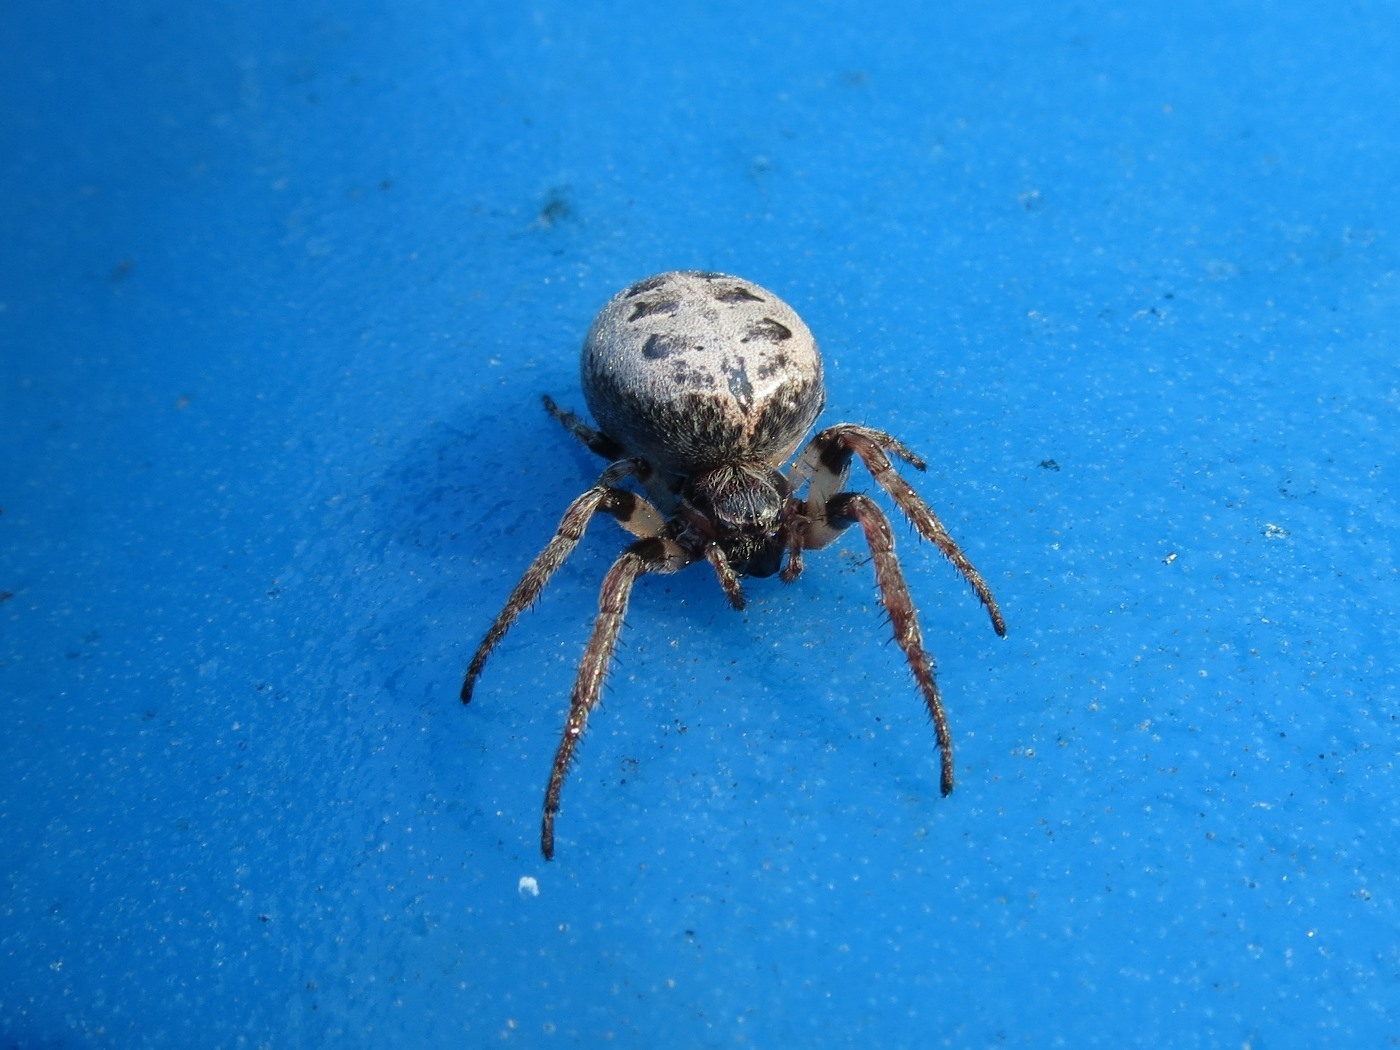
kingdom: Animalia
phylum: Arthropoda
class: Arachnida
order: Araneae
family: Araneidae
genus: Larinioides
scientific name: Larinioides cornutus
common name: Furrow orbweaver
